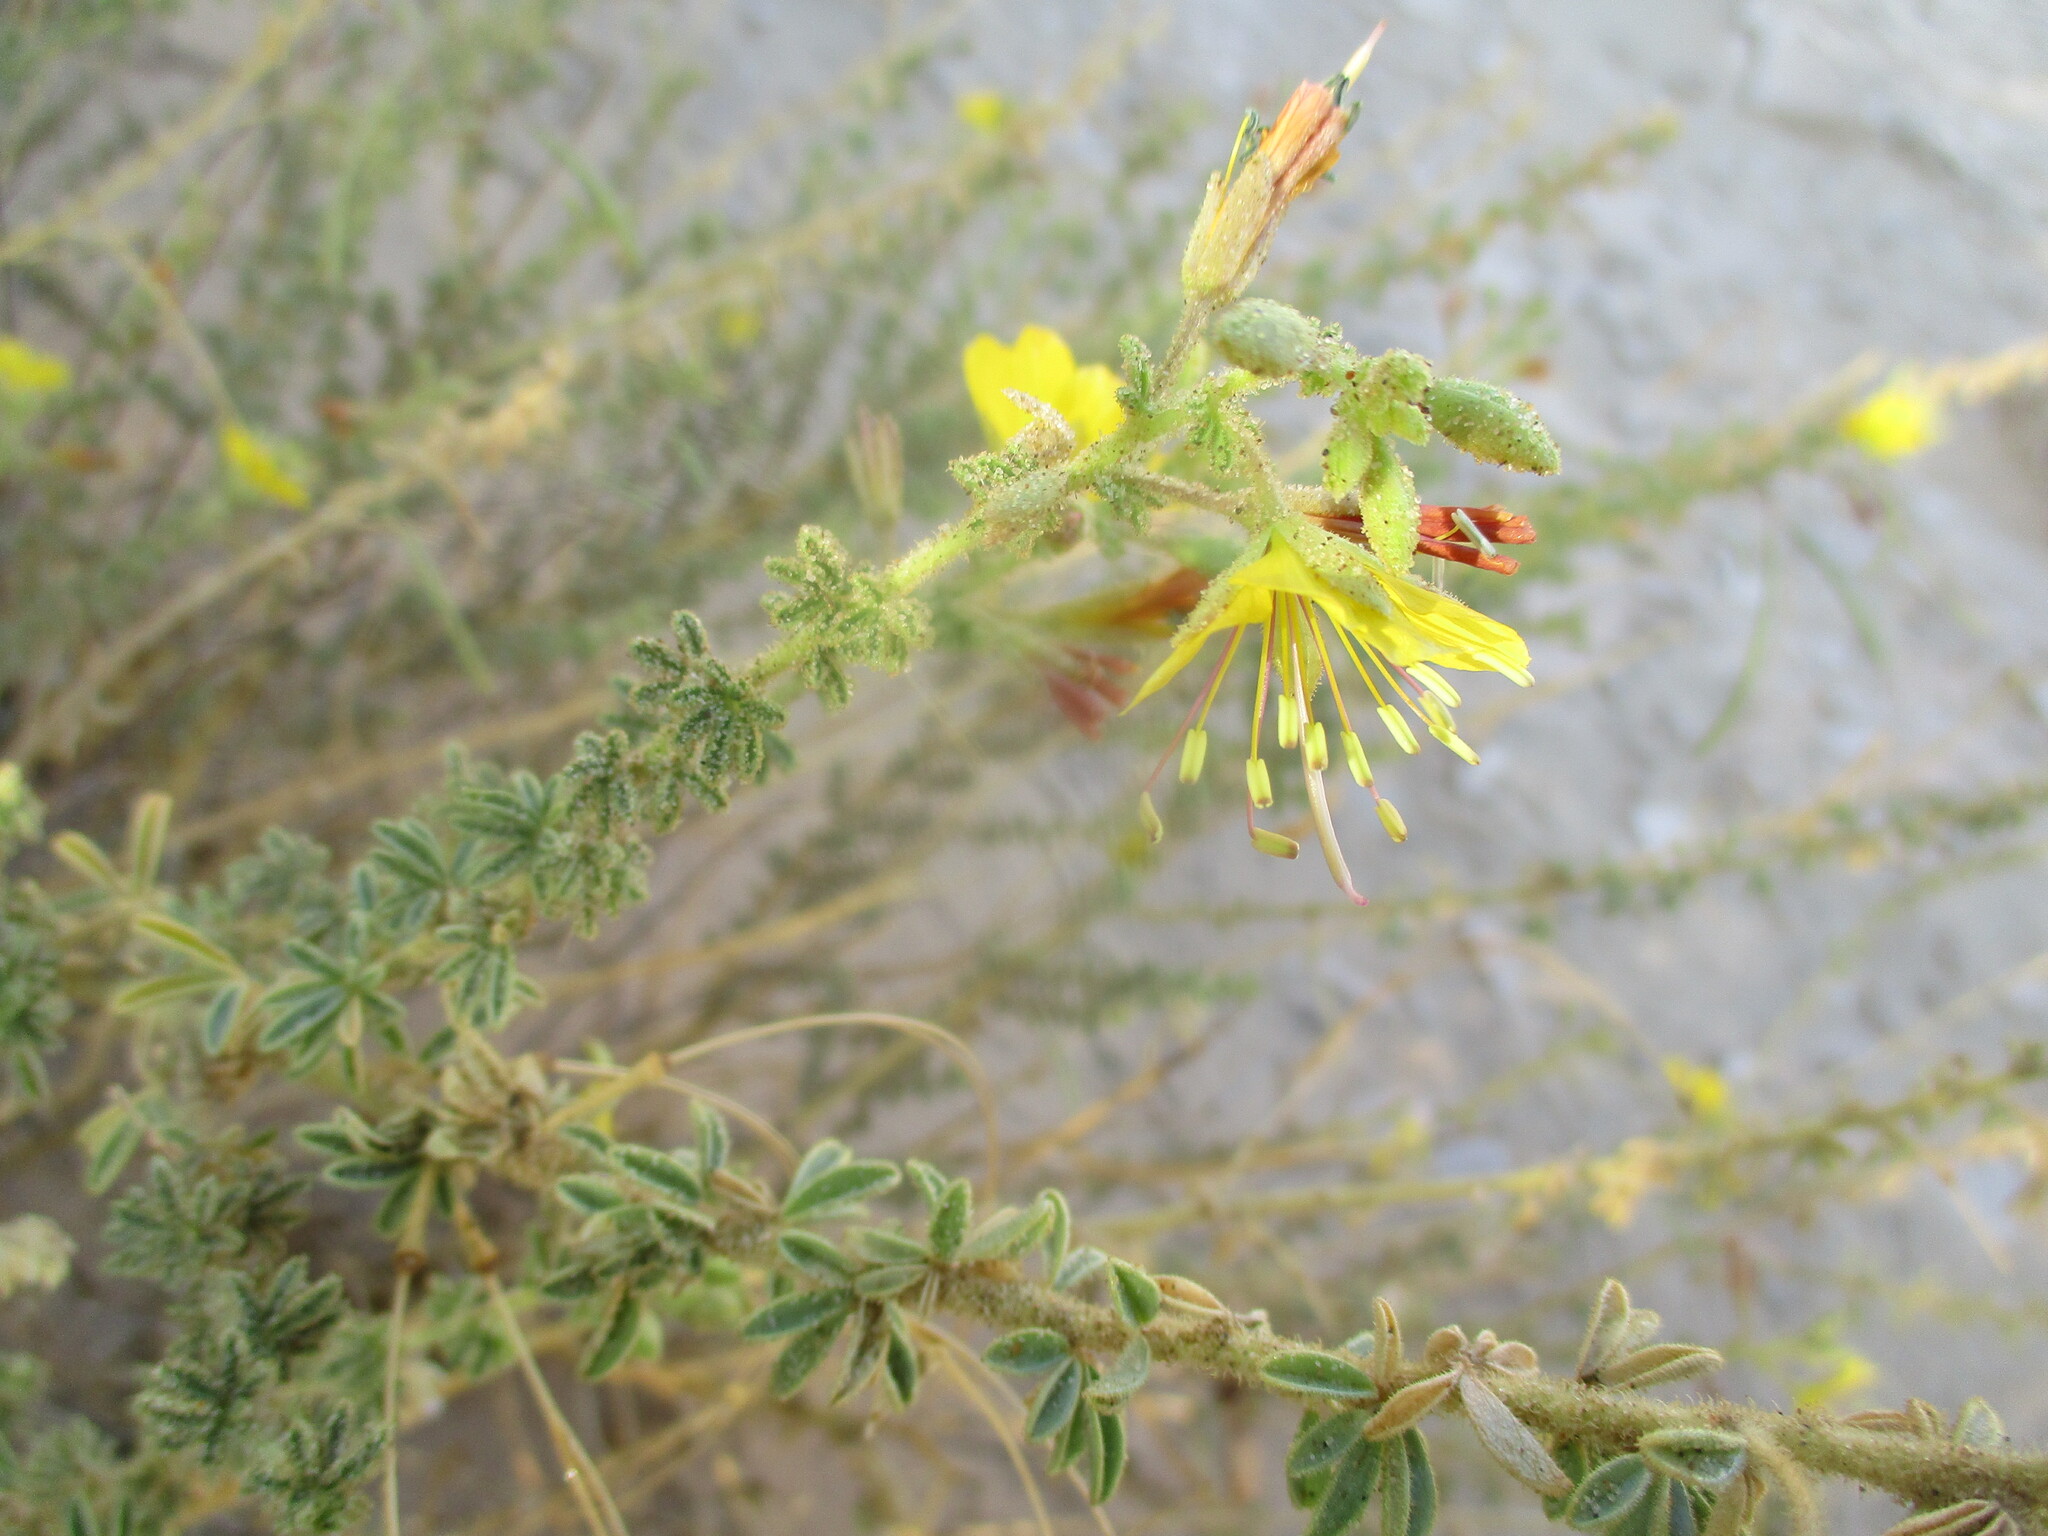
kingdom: Plantae
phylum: Tracheophyta
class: Magnoliopsida
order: Brassicales
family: Cleomaceae
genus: Cleome
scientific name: Cleome foliosa
